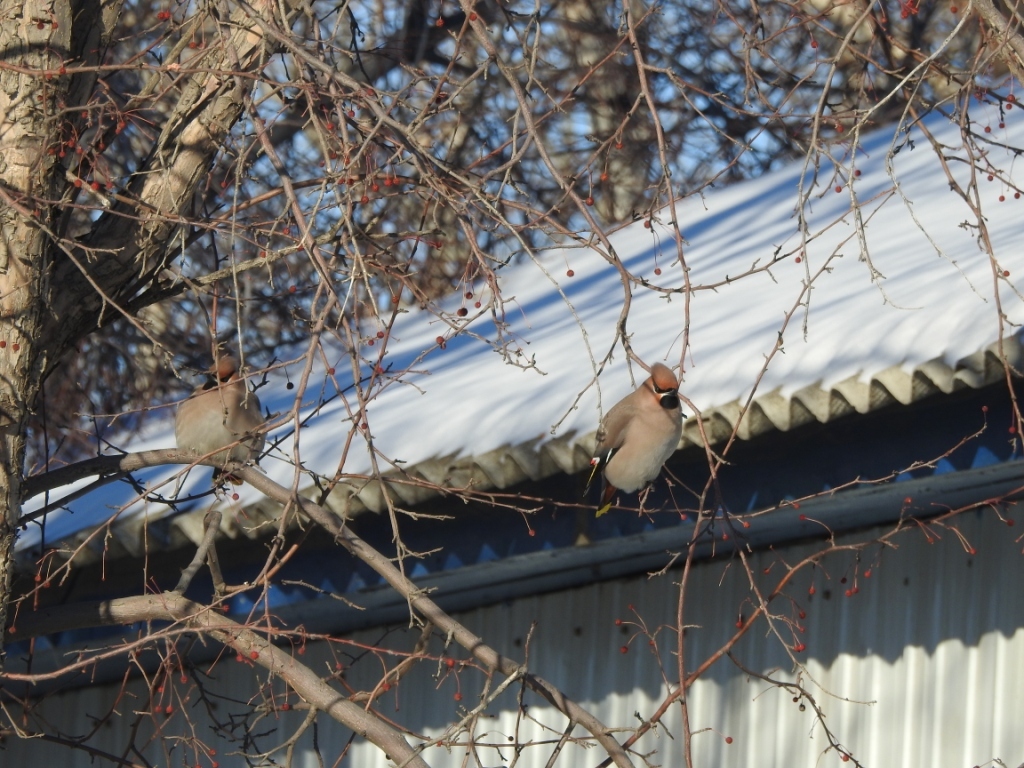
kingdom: Animalia
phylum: Chordata
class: Aves
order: Passeriformes
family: Bombycillidae
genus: Bombycilla
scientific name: Bombycilla garrulus
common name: Bohemian waxwing
